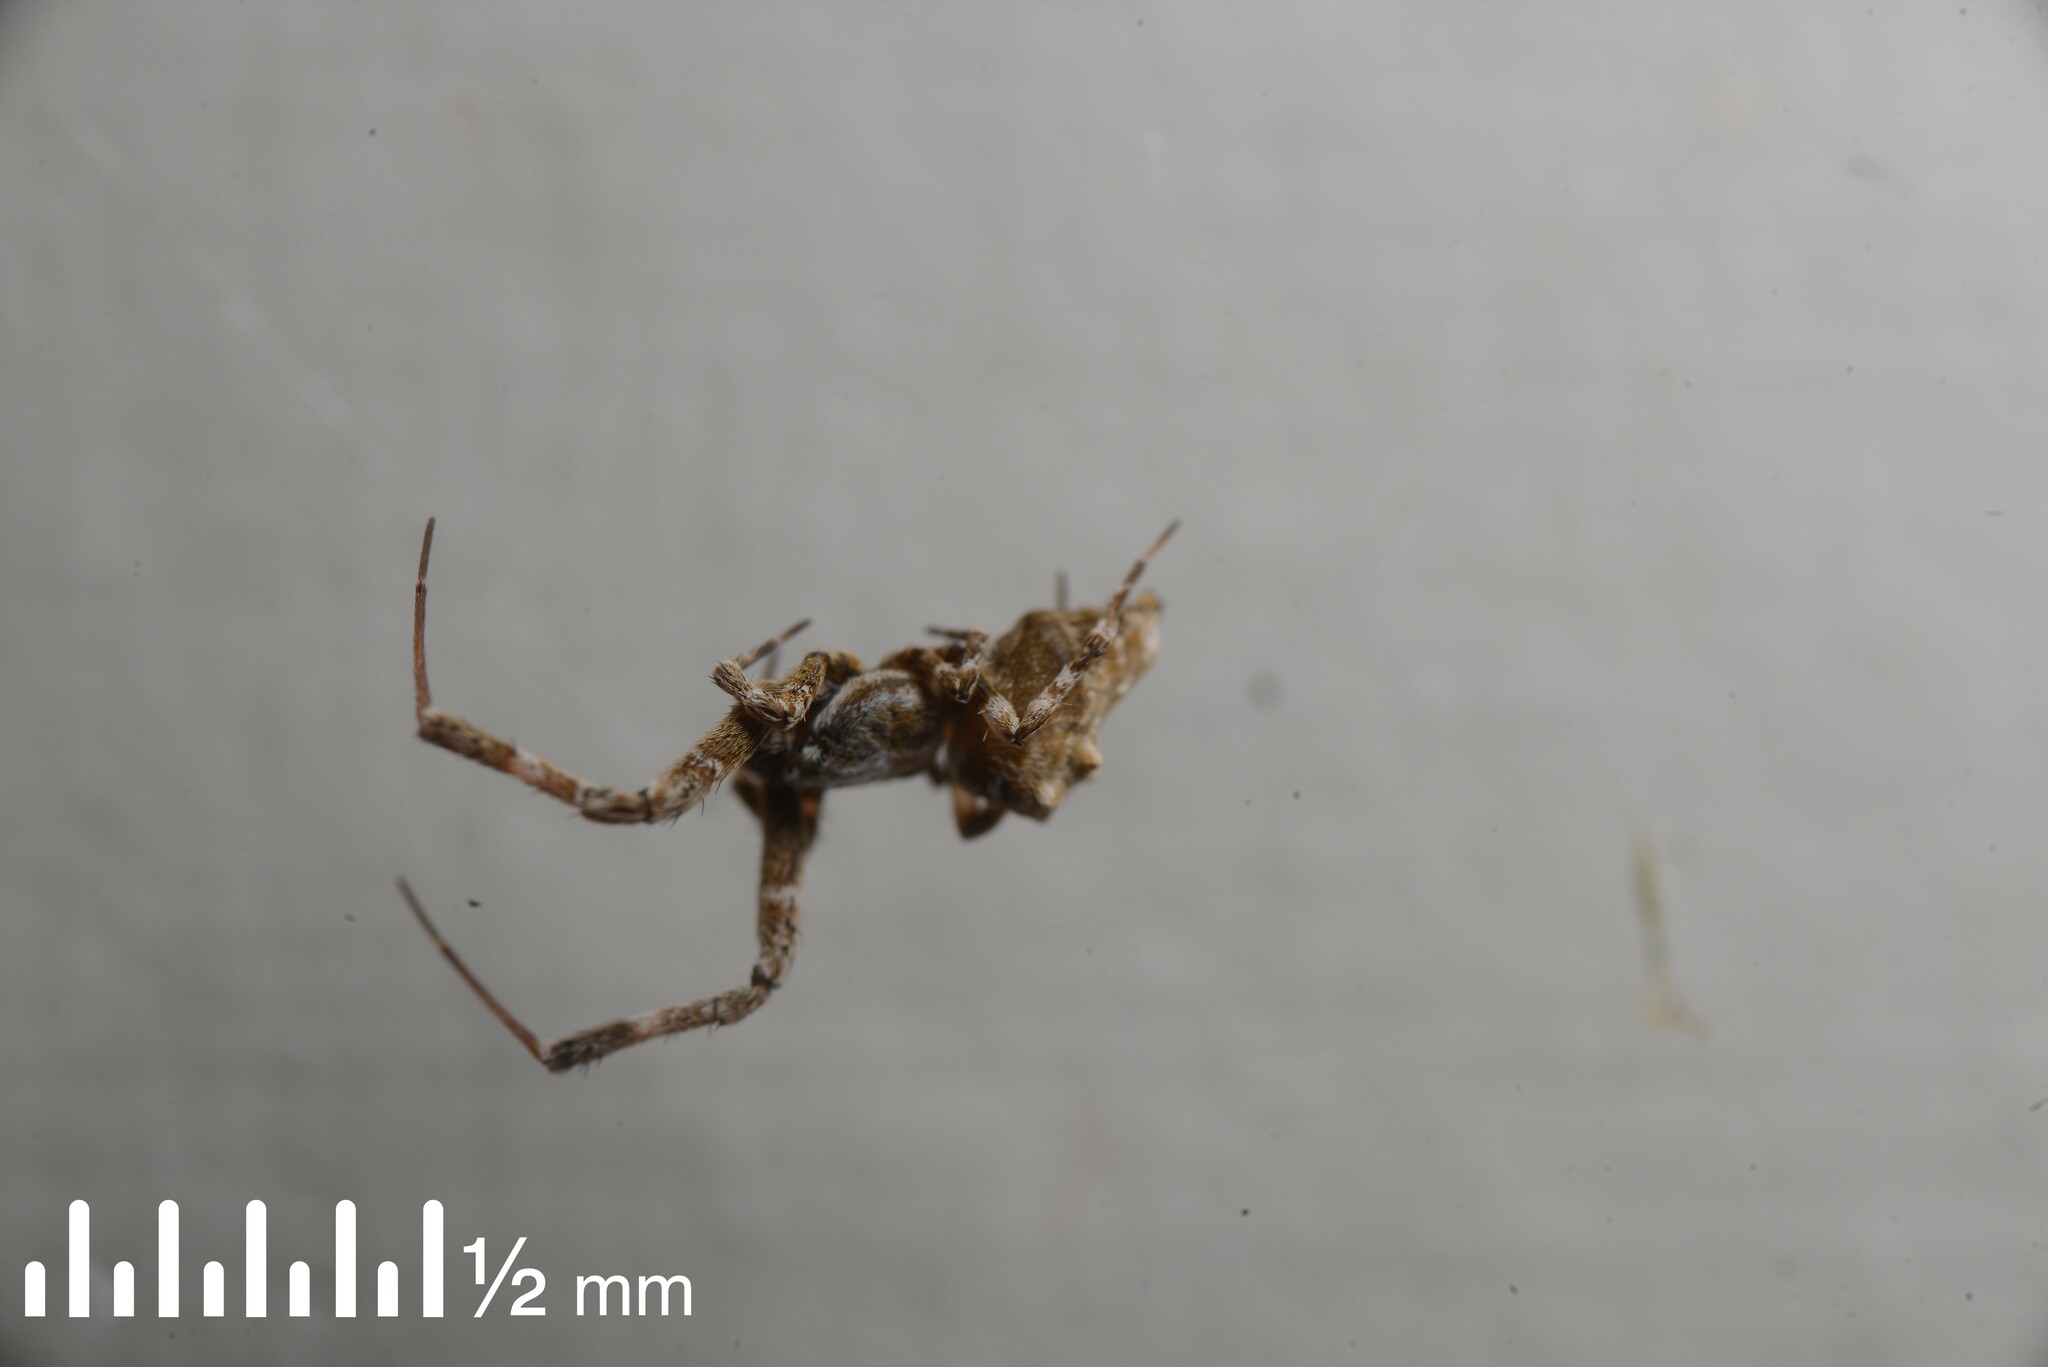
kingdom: Animalia
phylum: Arthropoda
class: Arachnida
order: Araneae
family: Uloboridae
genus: Philoponella
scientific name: Philoponella congregabilis
